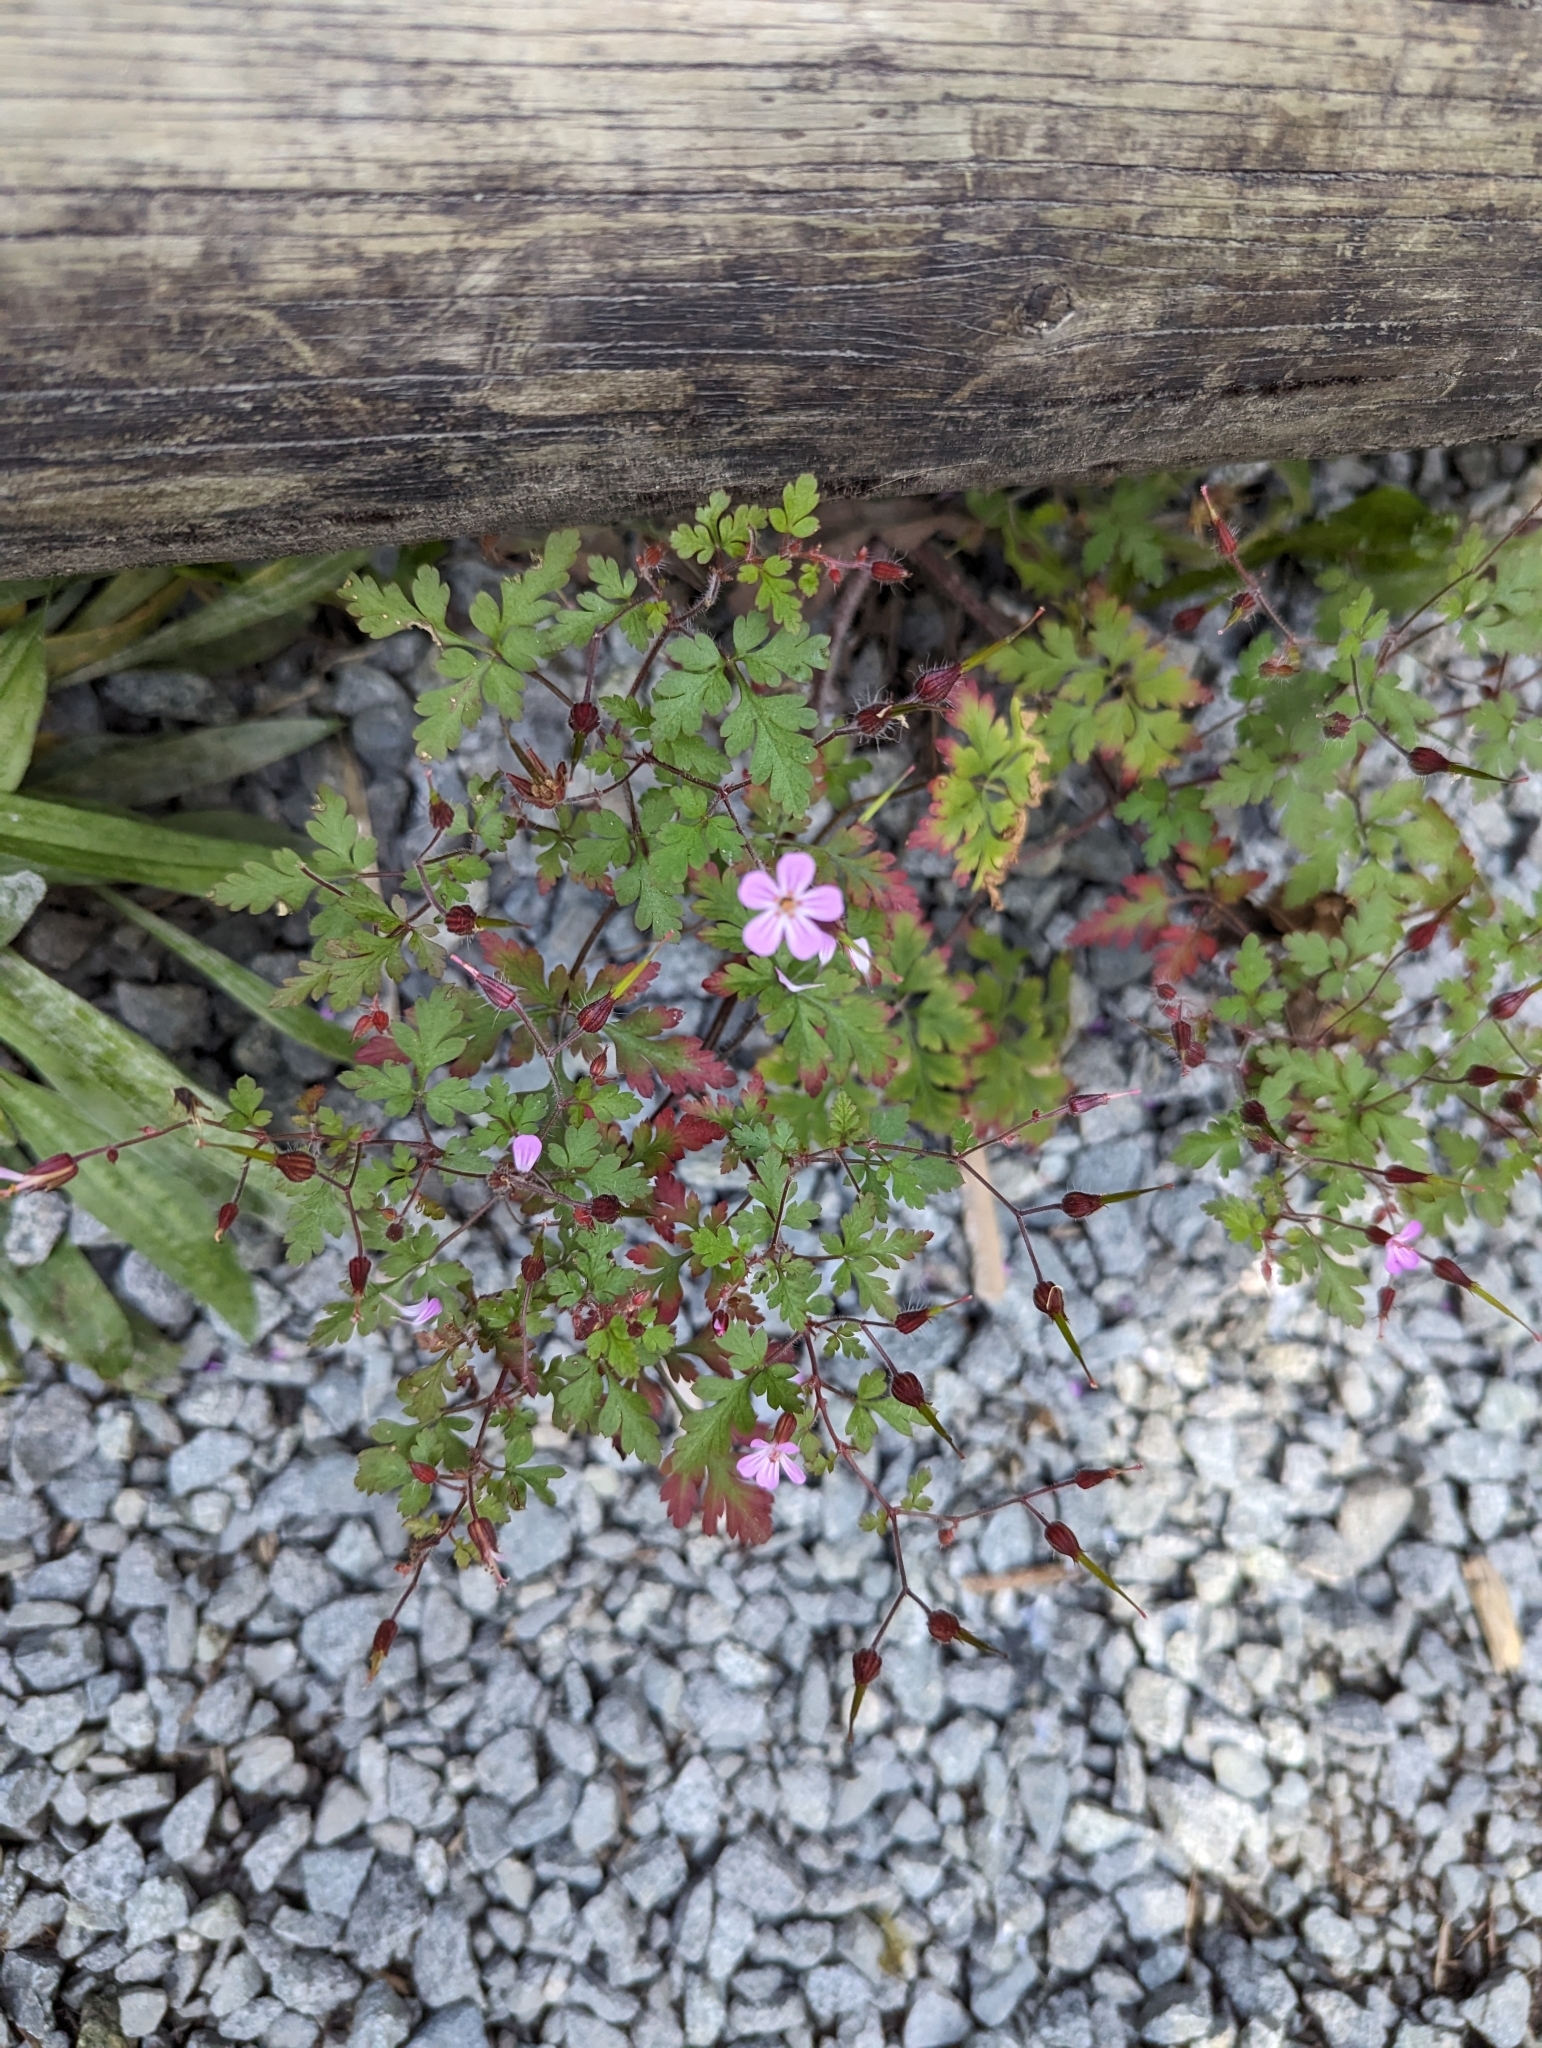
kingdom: Plantae
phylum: Tracheophyta
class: Magnoliopsida
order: Geraniales
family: Geraniaceae
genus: Geranium
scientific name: Geranium robertianum
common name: Herb-robert
